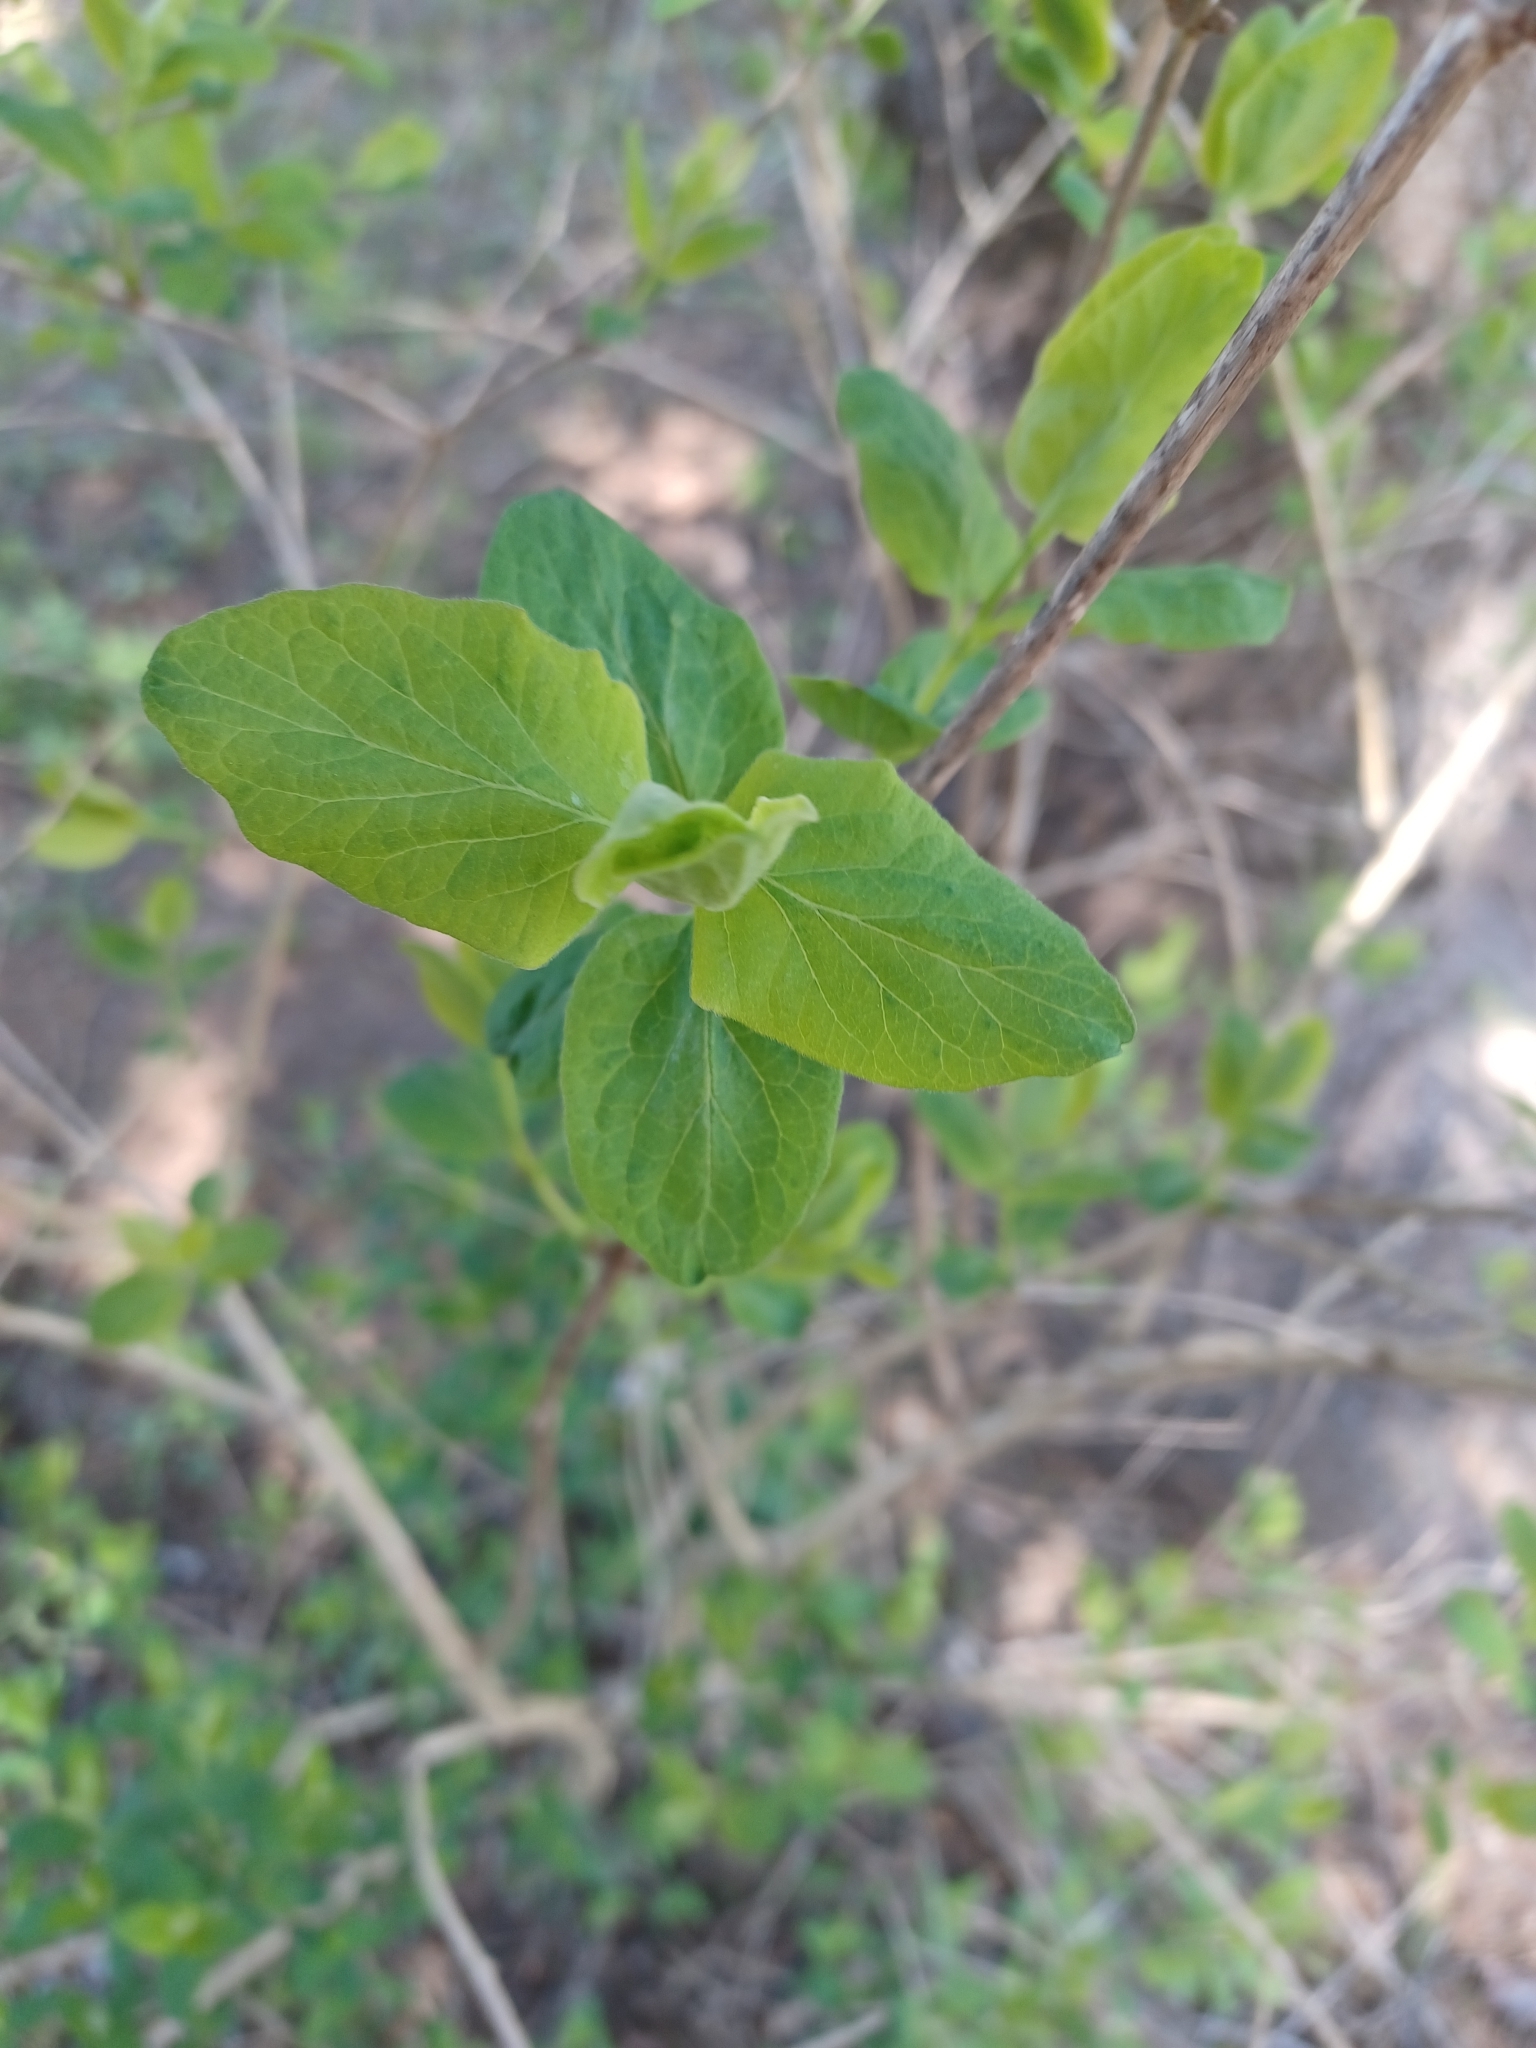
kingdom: Plantae
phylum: Tracheophyta
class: Magnoliopsida
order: Dipsacales
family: Caprifoliaceae
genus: Lonicera
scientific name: Lonicera tatarica
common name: Tatarian honeysuckle
